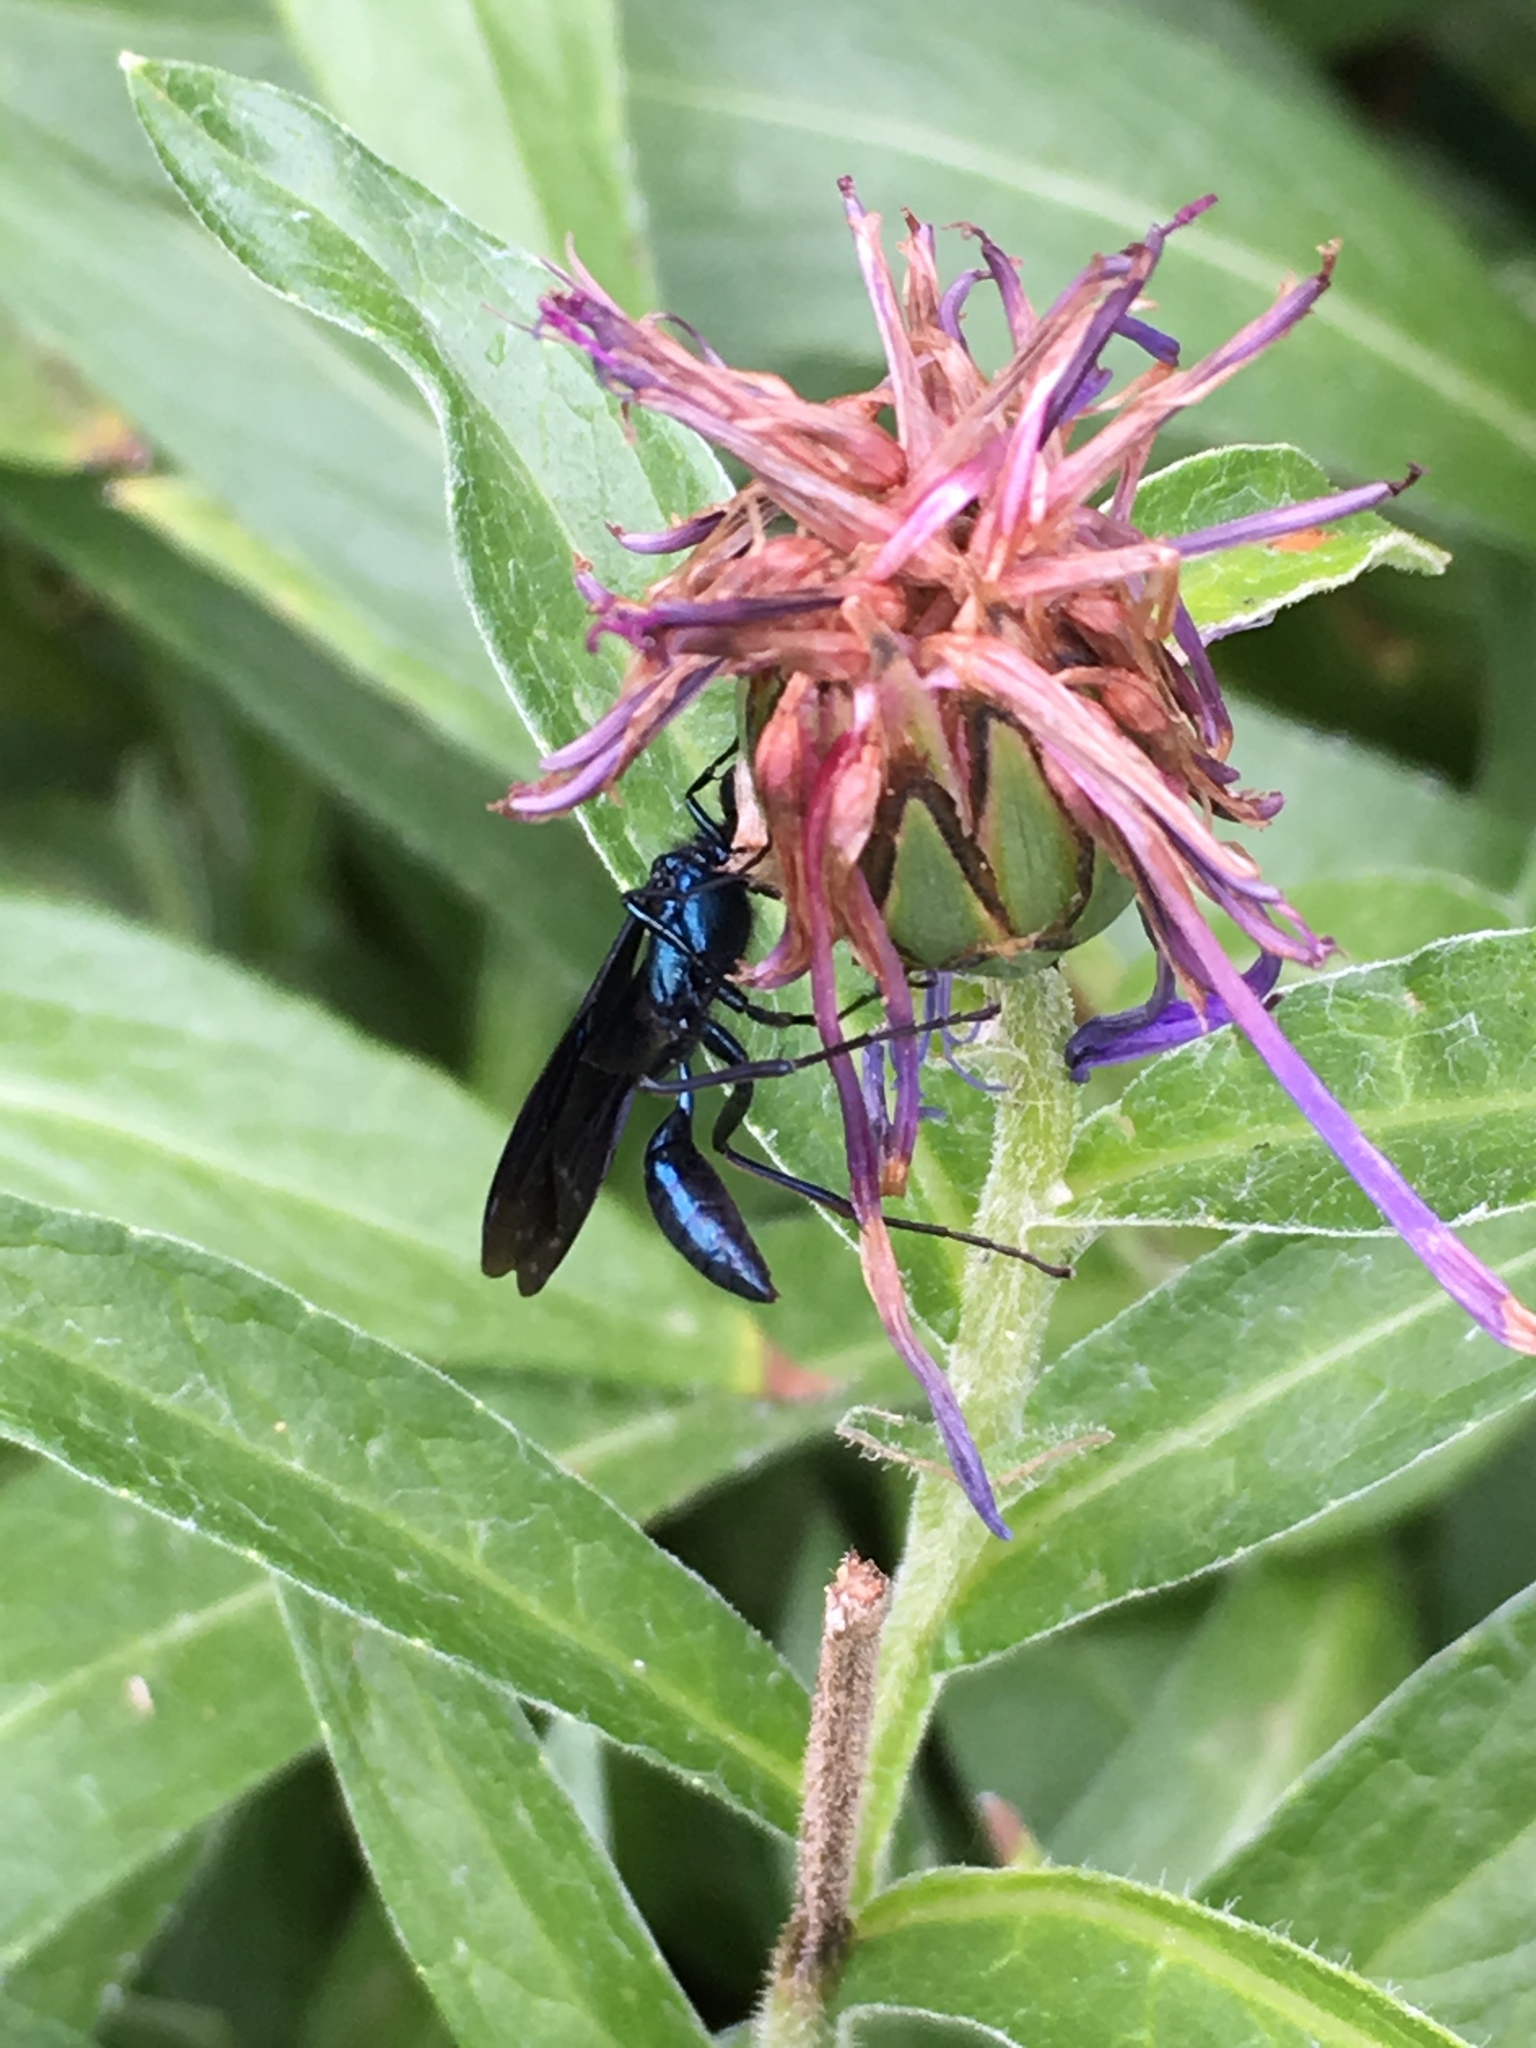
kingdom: Animalia
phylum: Arthropoda
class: Insecta
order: Hymenoptera
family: Sphecidae
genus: Chalybion
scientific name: Chalybion californicum
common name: Mud dauber
